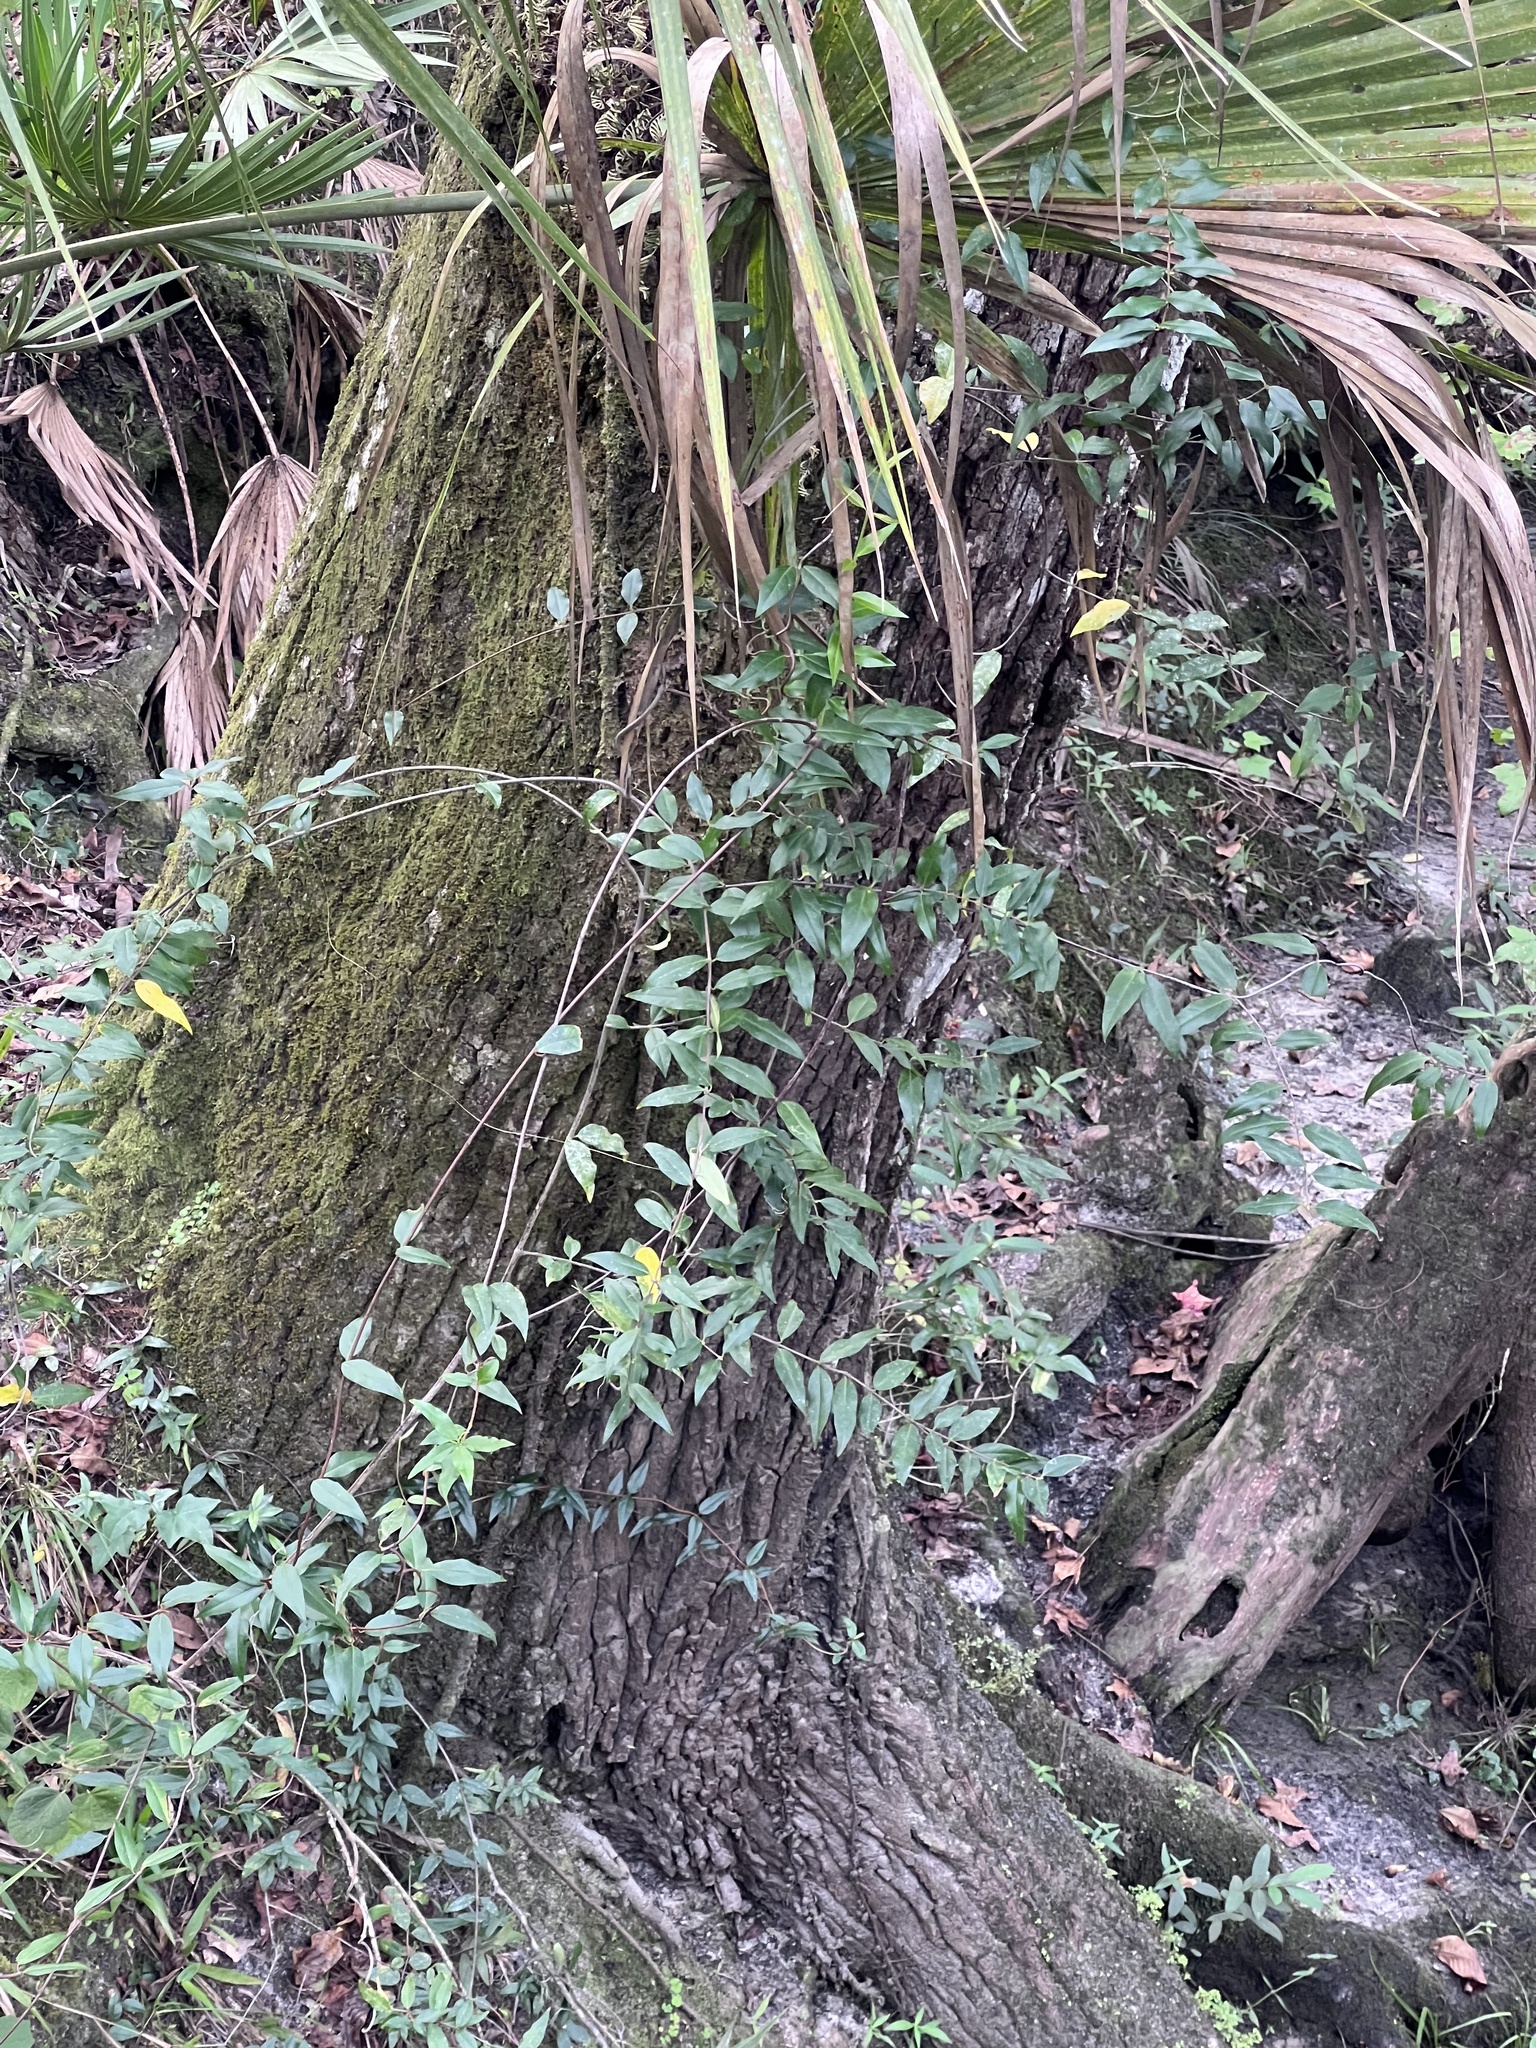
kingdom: Plantae
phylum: Tracheophyta
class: Magnoliopsida
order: Gentianales
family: Gelsemiaceae
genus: Gelsemium
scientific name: Gelsemium sempervirens
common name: Carolina-jasmine
